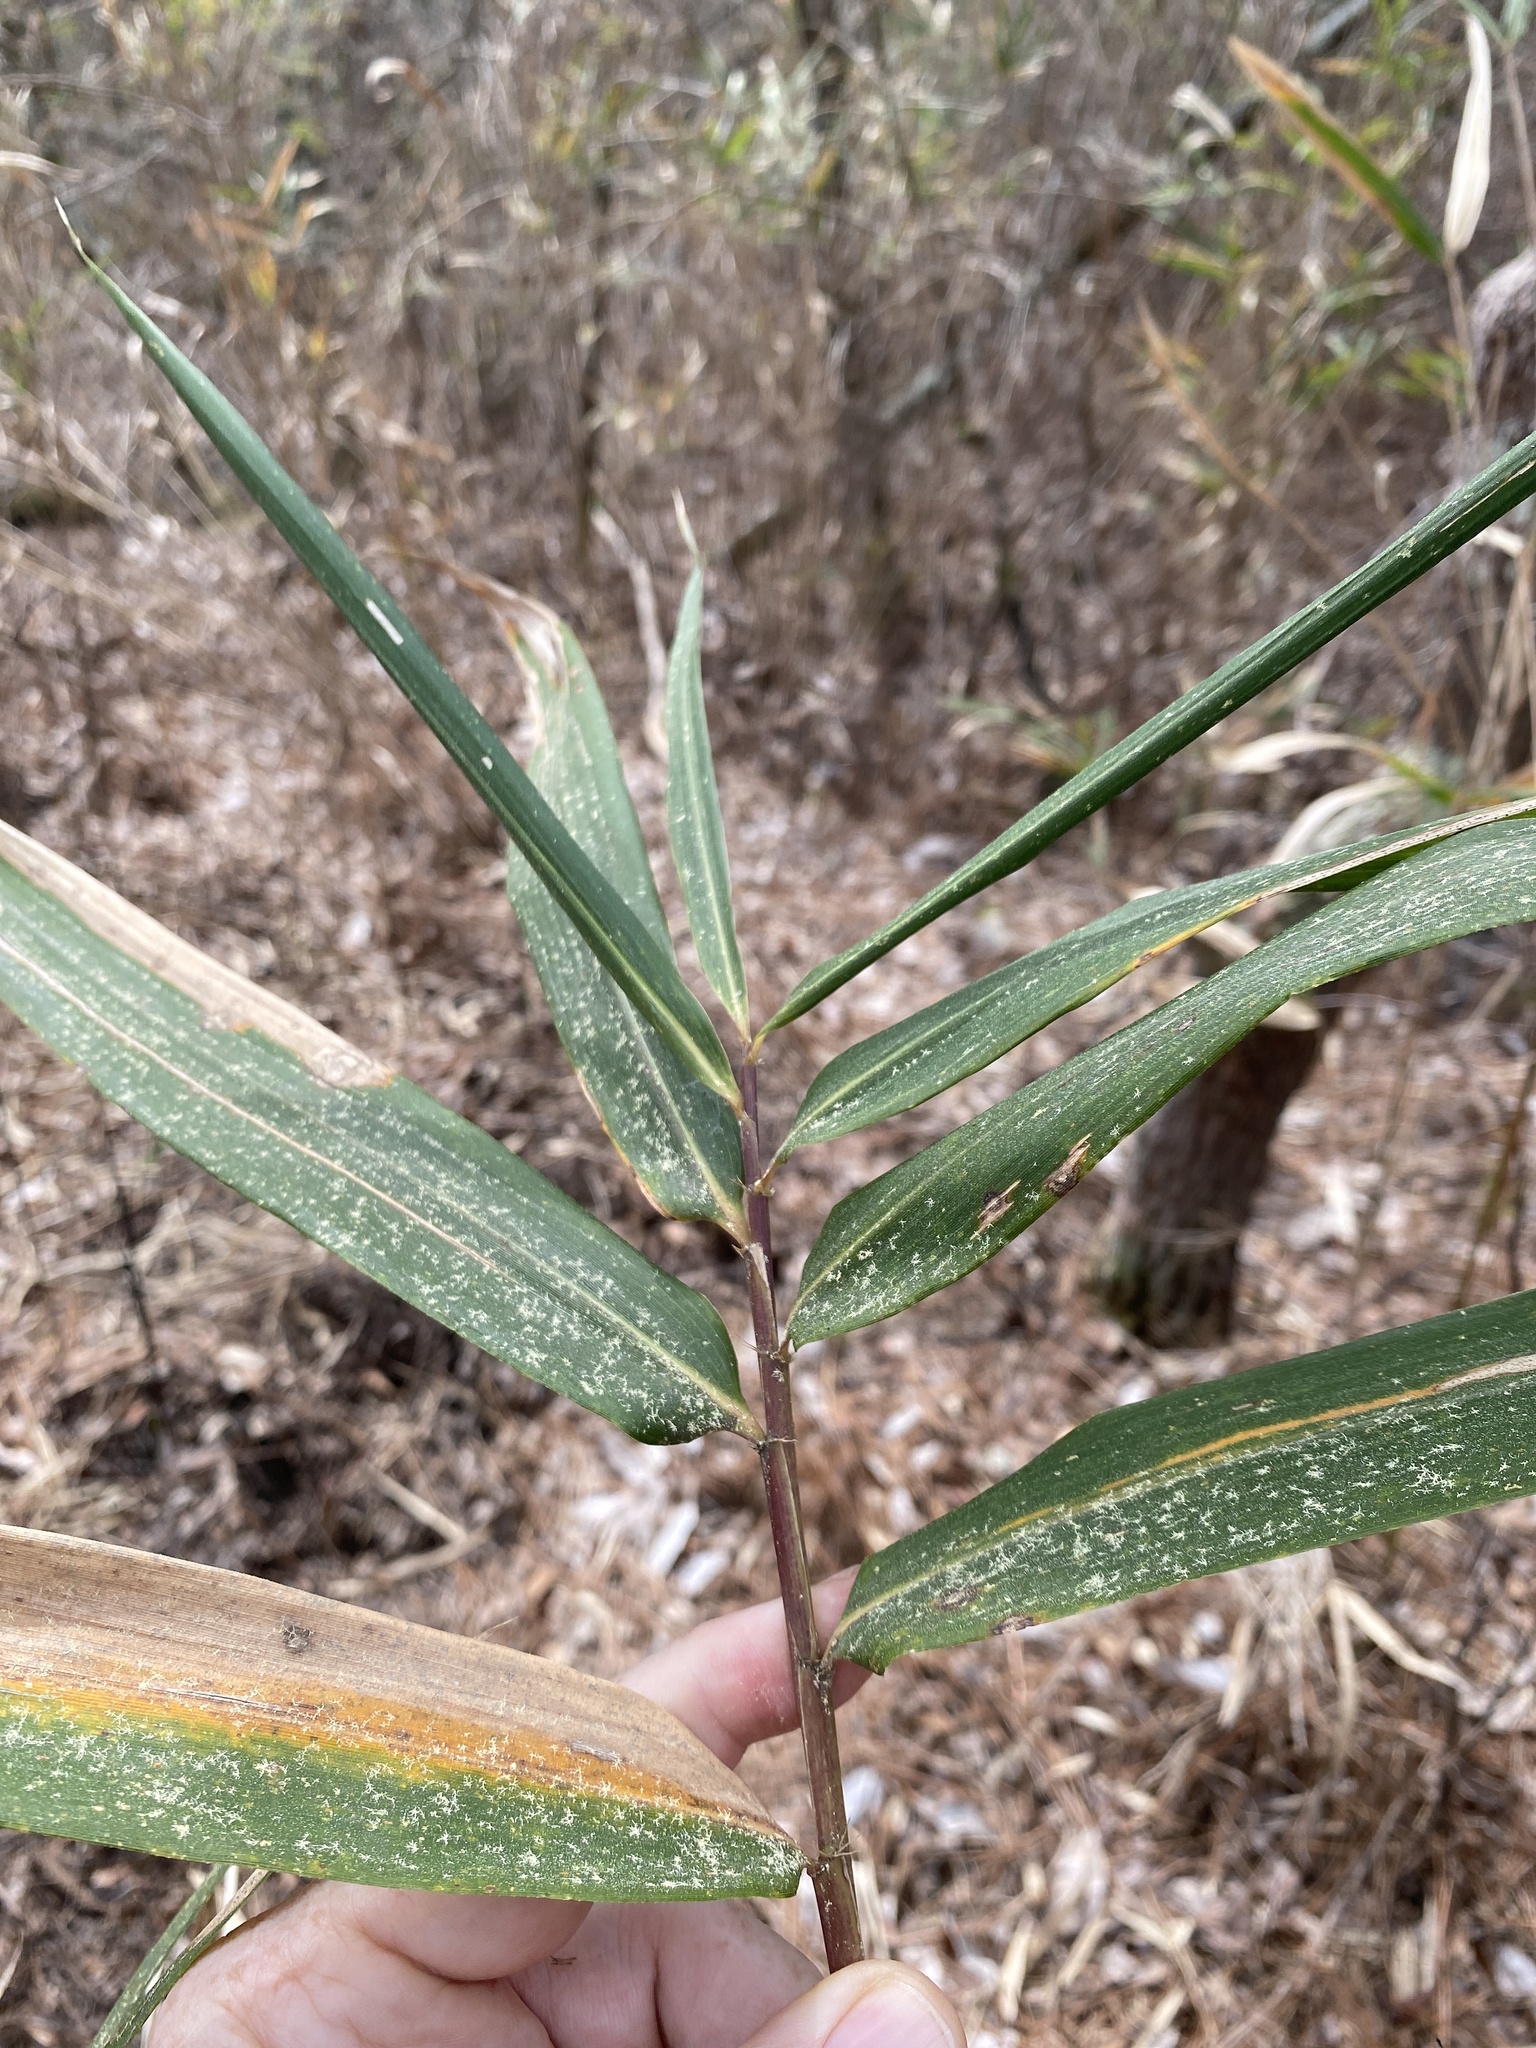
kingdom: Plantae
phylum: Tracheophyta
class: Liliopsida
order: Poales
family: Poaceae
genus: Arundinaria
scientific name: Arundinaria tecta
